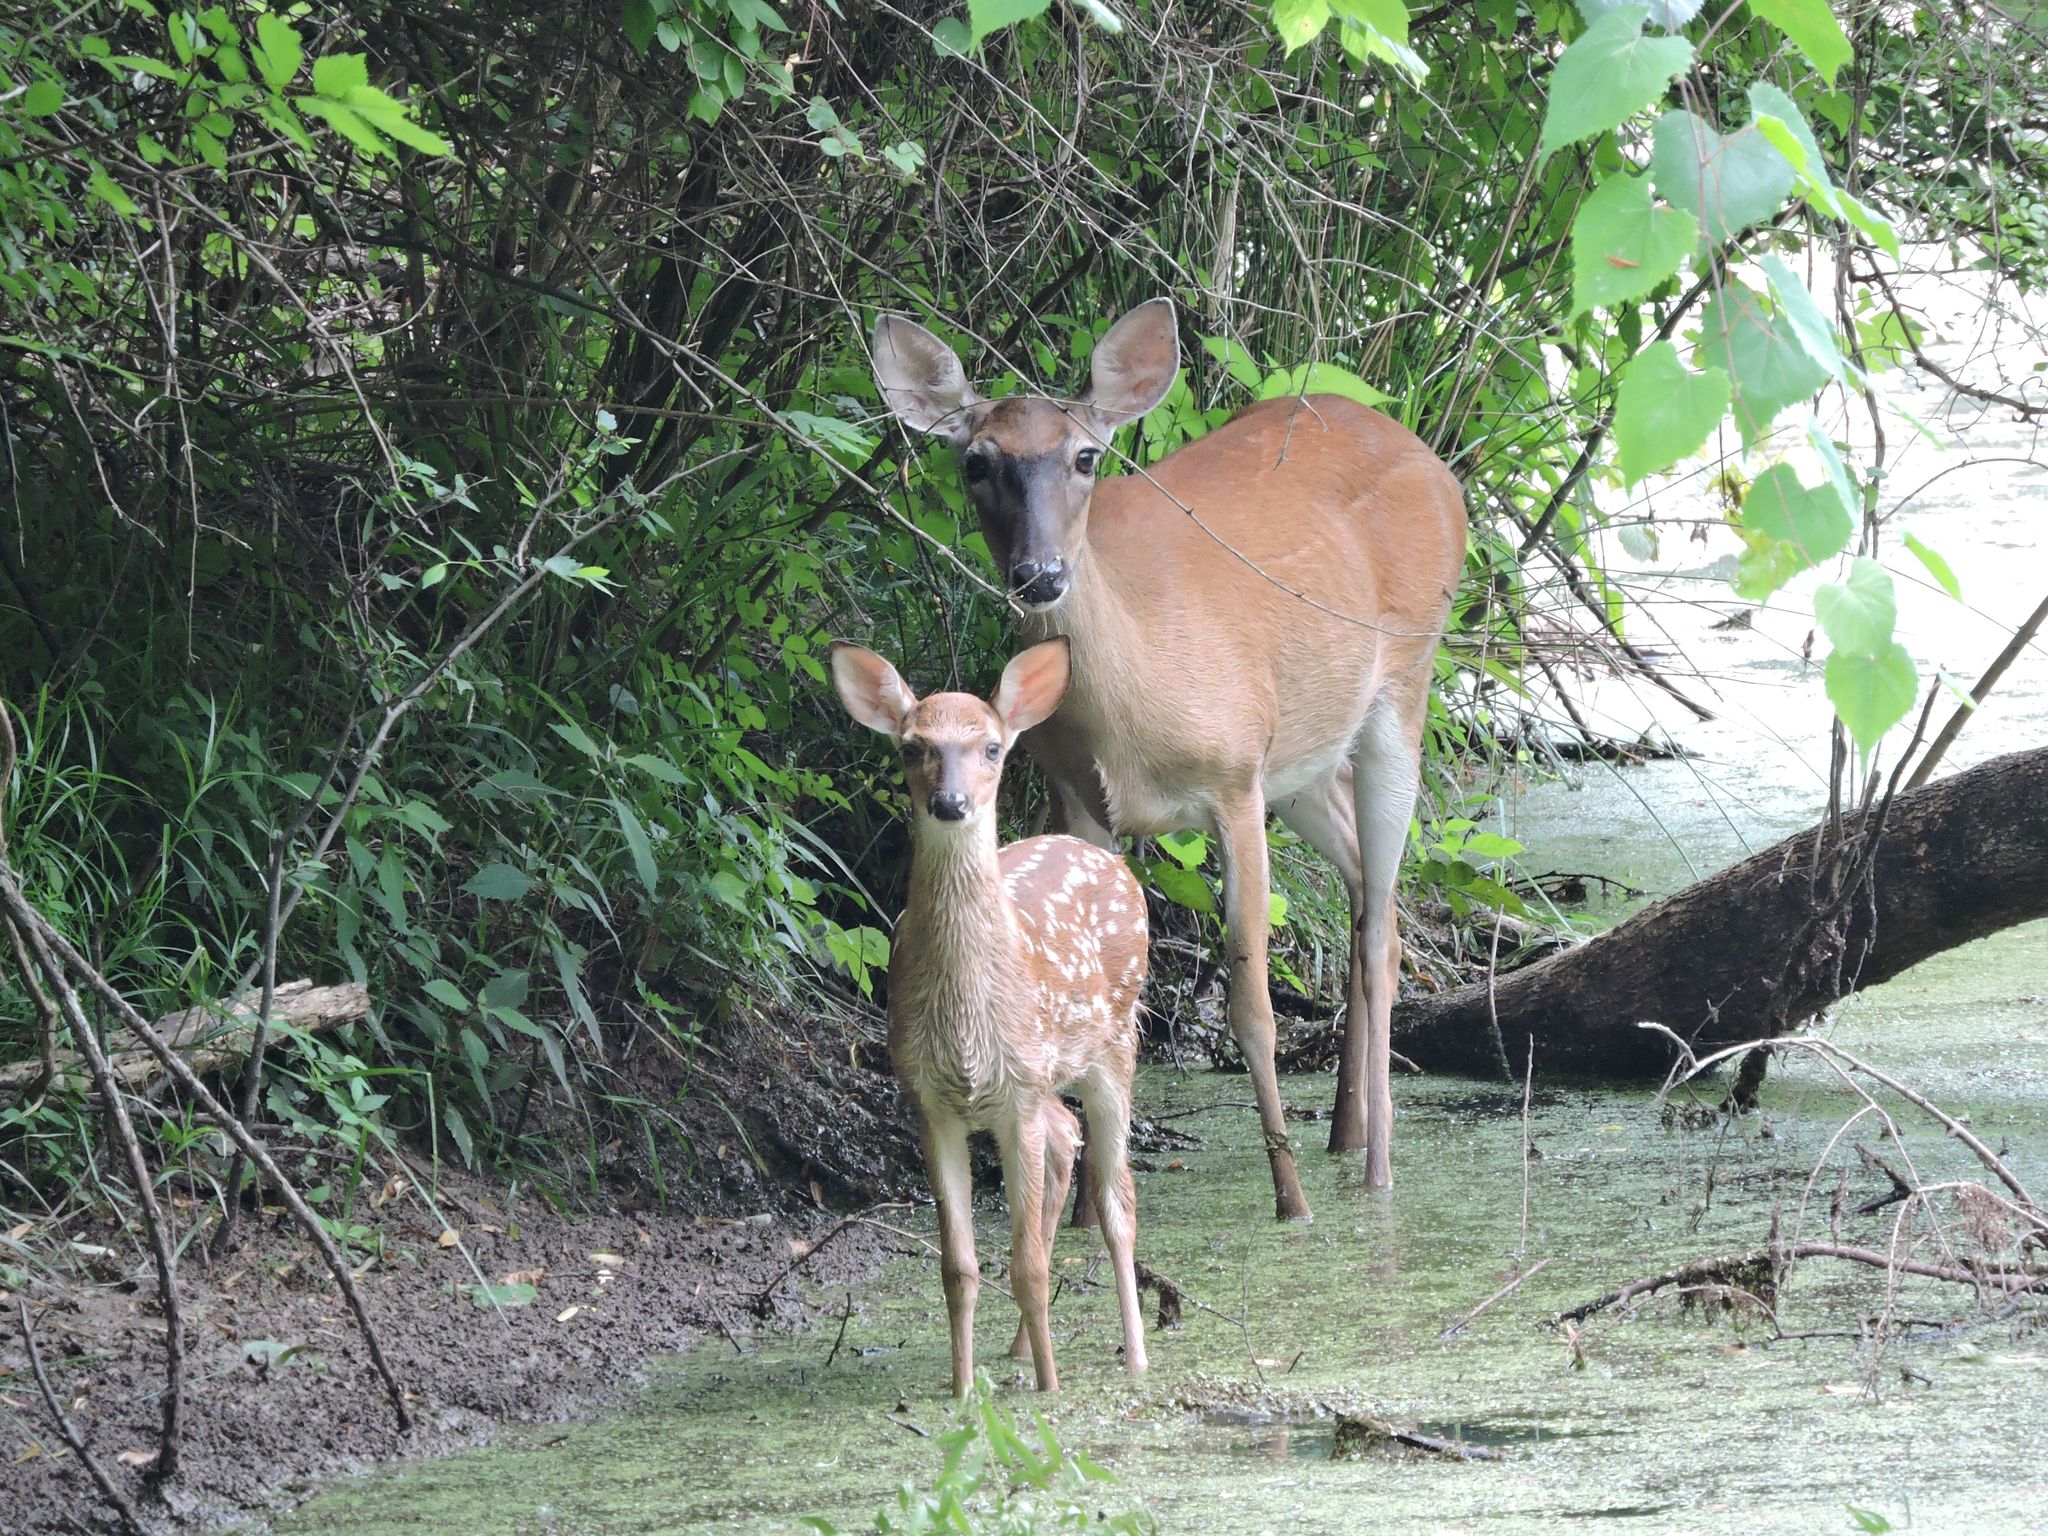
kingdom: Animalia
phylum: Chordata
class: Mammalia
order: Artiodactyla
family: Cervidae
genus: Odocoileus
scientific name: Odocoileus virginianus
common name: White-tailed deer
